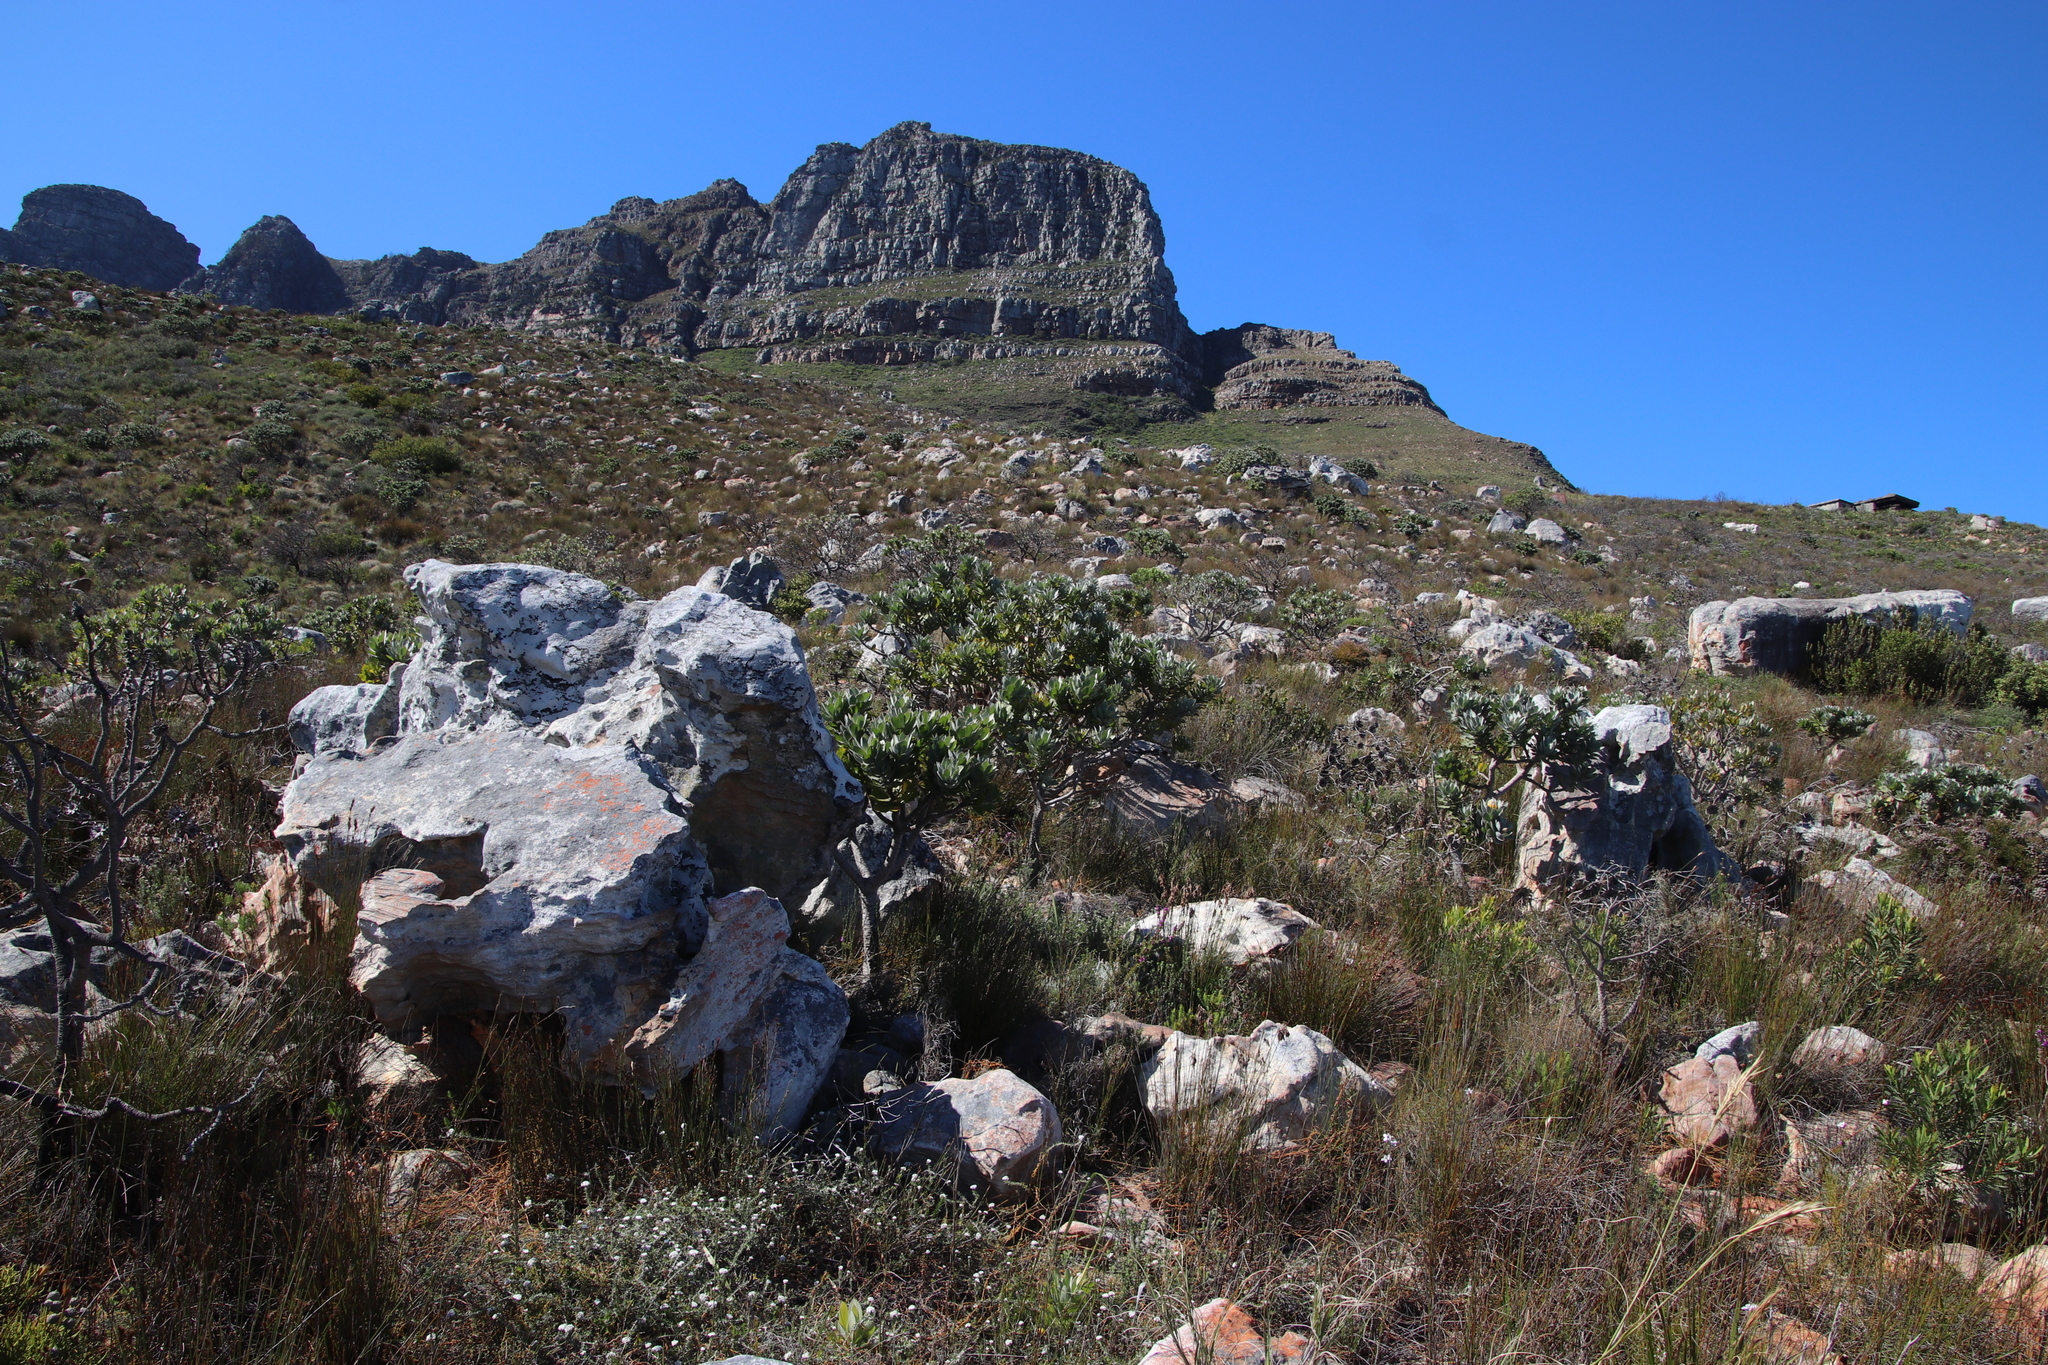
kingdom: Plantae
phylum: Tracheophyta
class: Magnoliopsida
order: Proteales
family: Proteaceae
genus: Leucospermum
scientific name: Leucospermum conocarpodendron
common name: Tree pincushion
